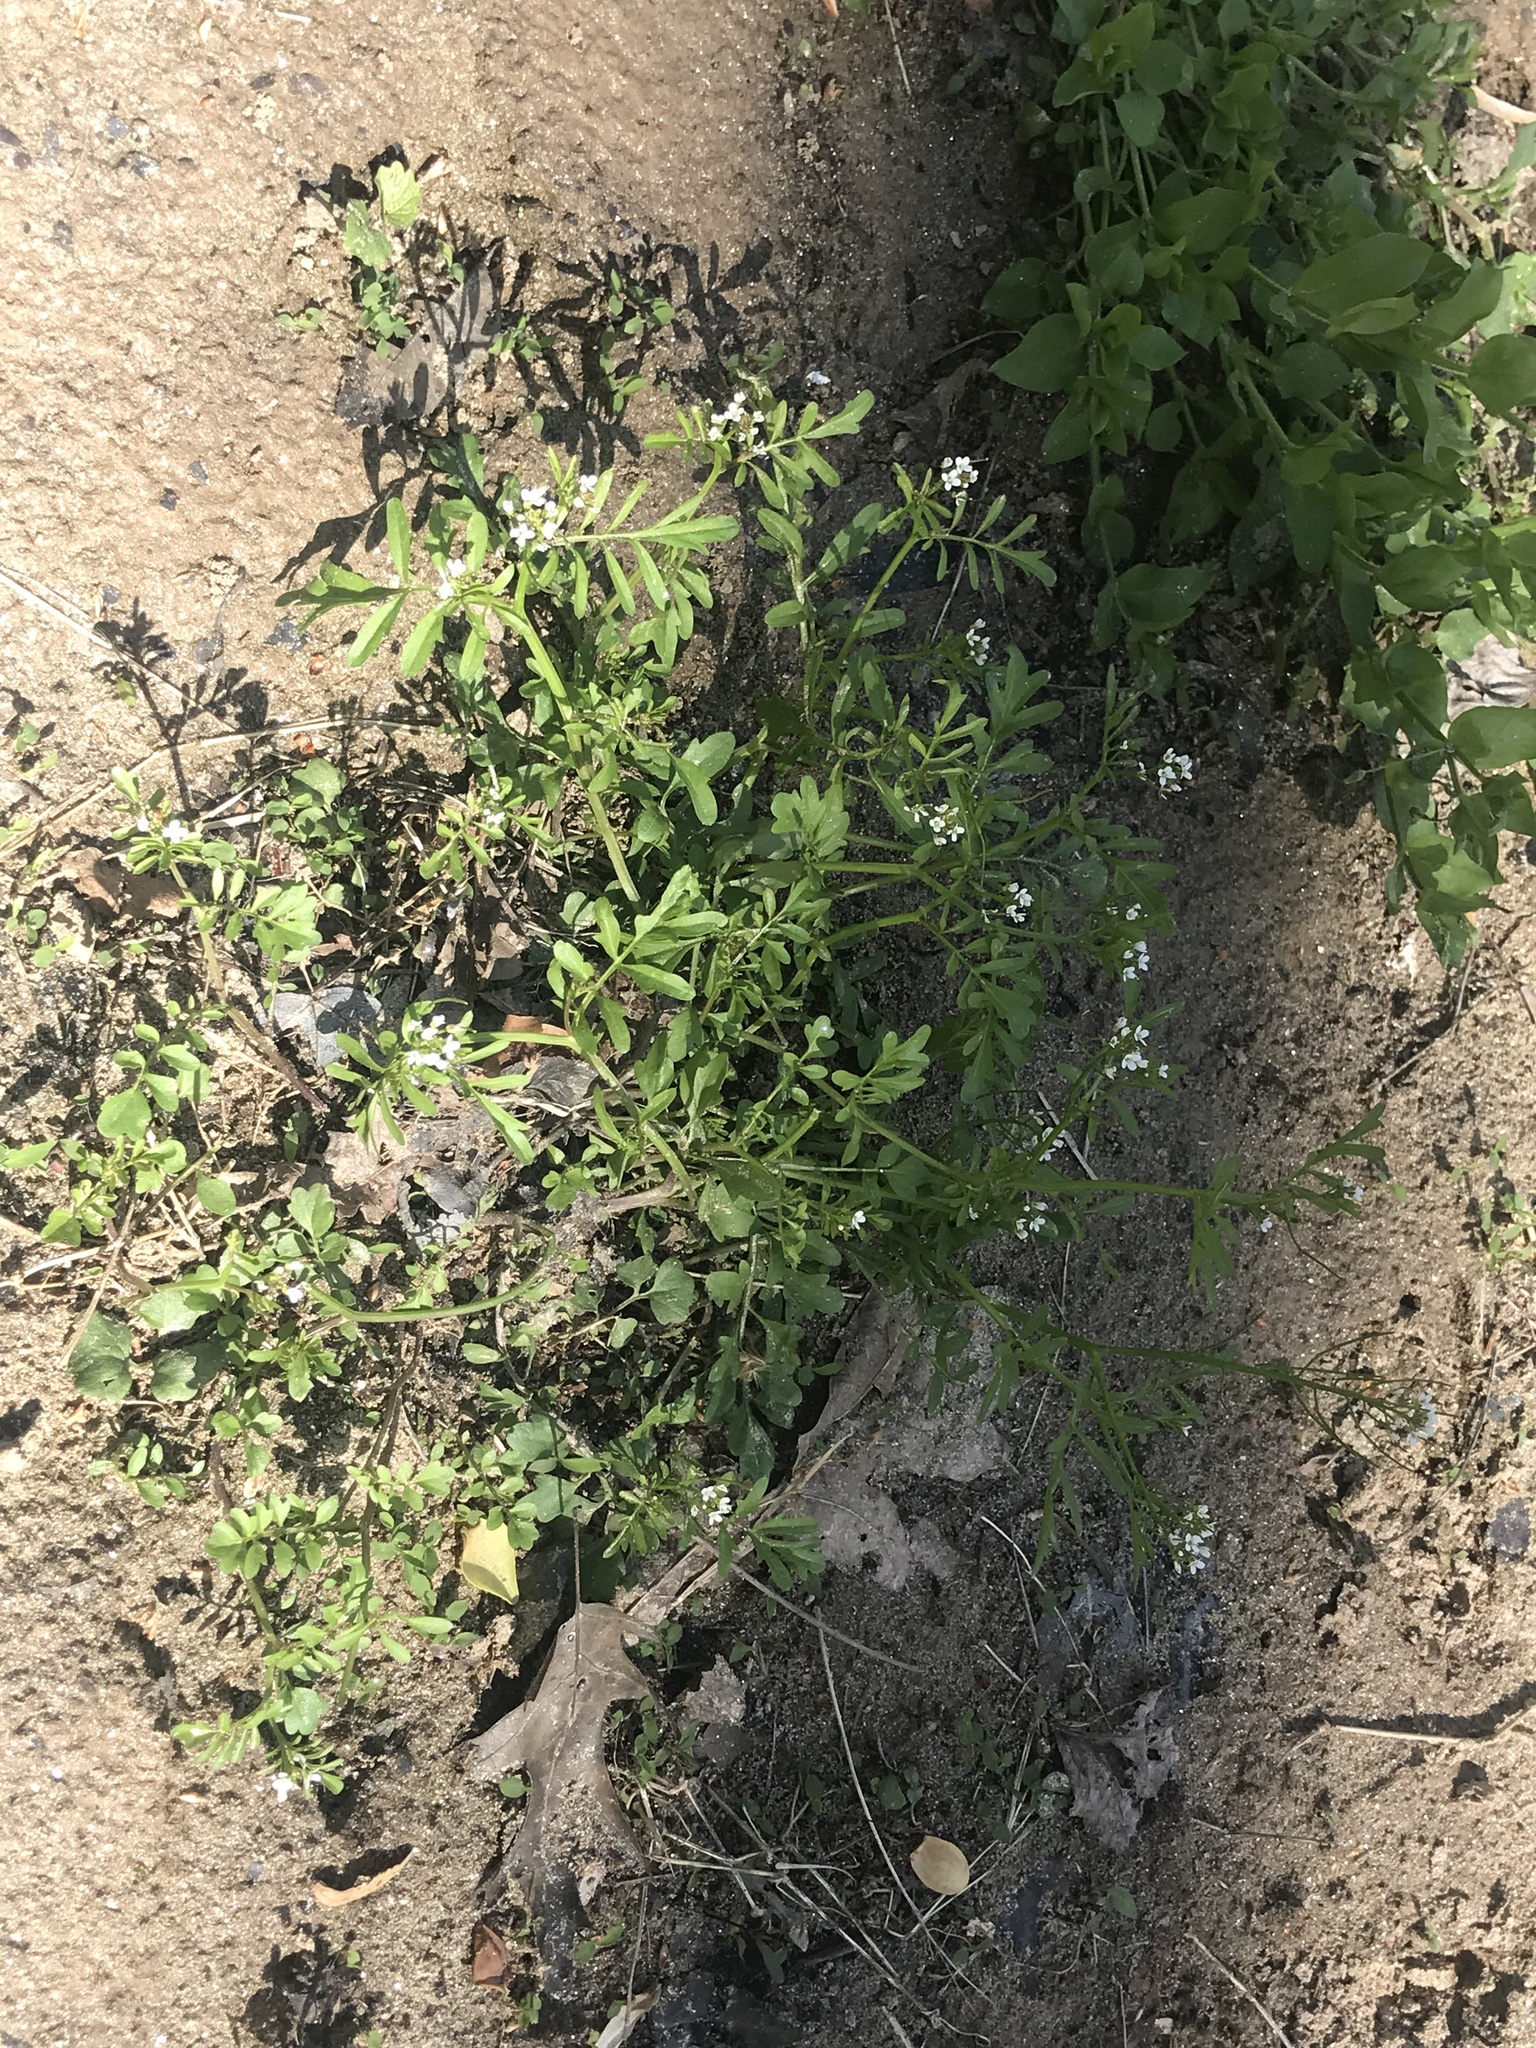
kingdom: Plantae
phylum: Tracheophyta
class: Magnoliopsida
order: Brassicales
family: Brassicaceae
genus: Cardamine
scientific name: Cardamine hirsuta
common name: Hairy bittercress
